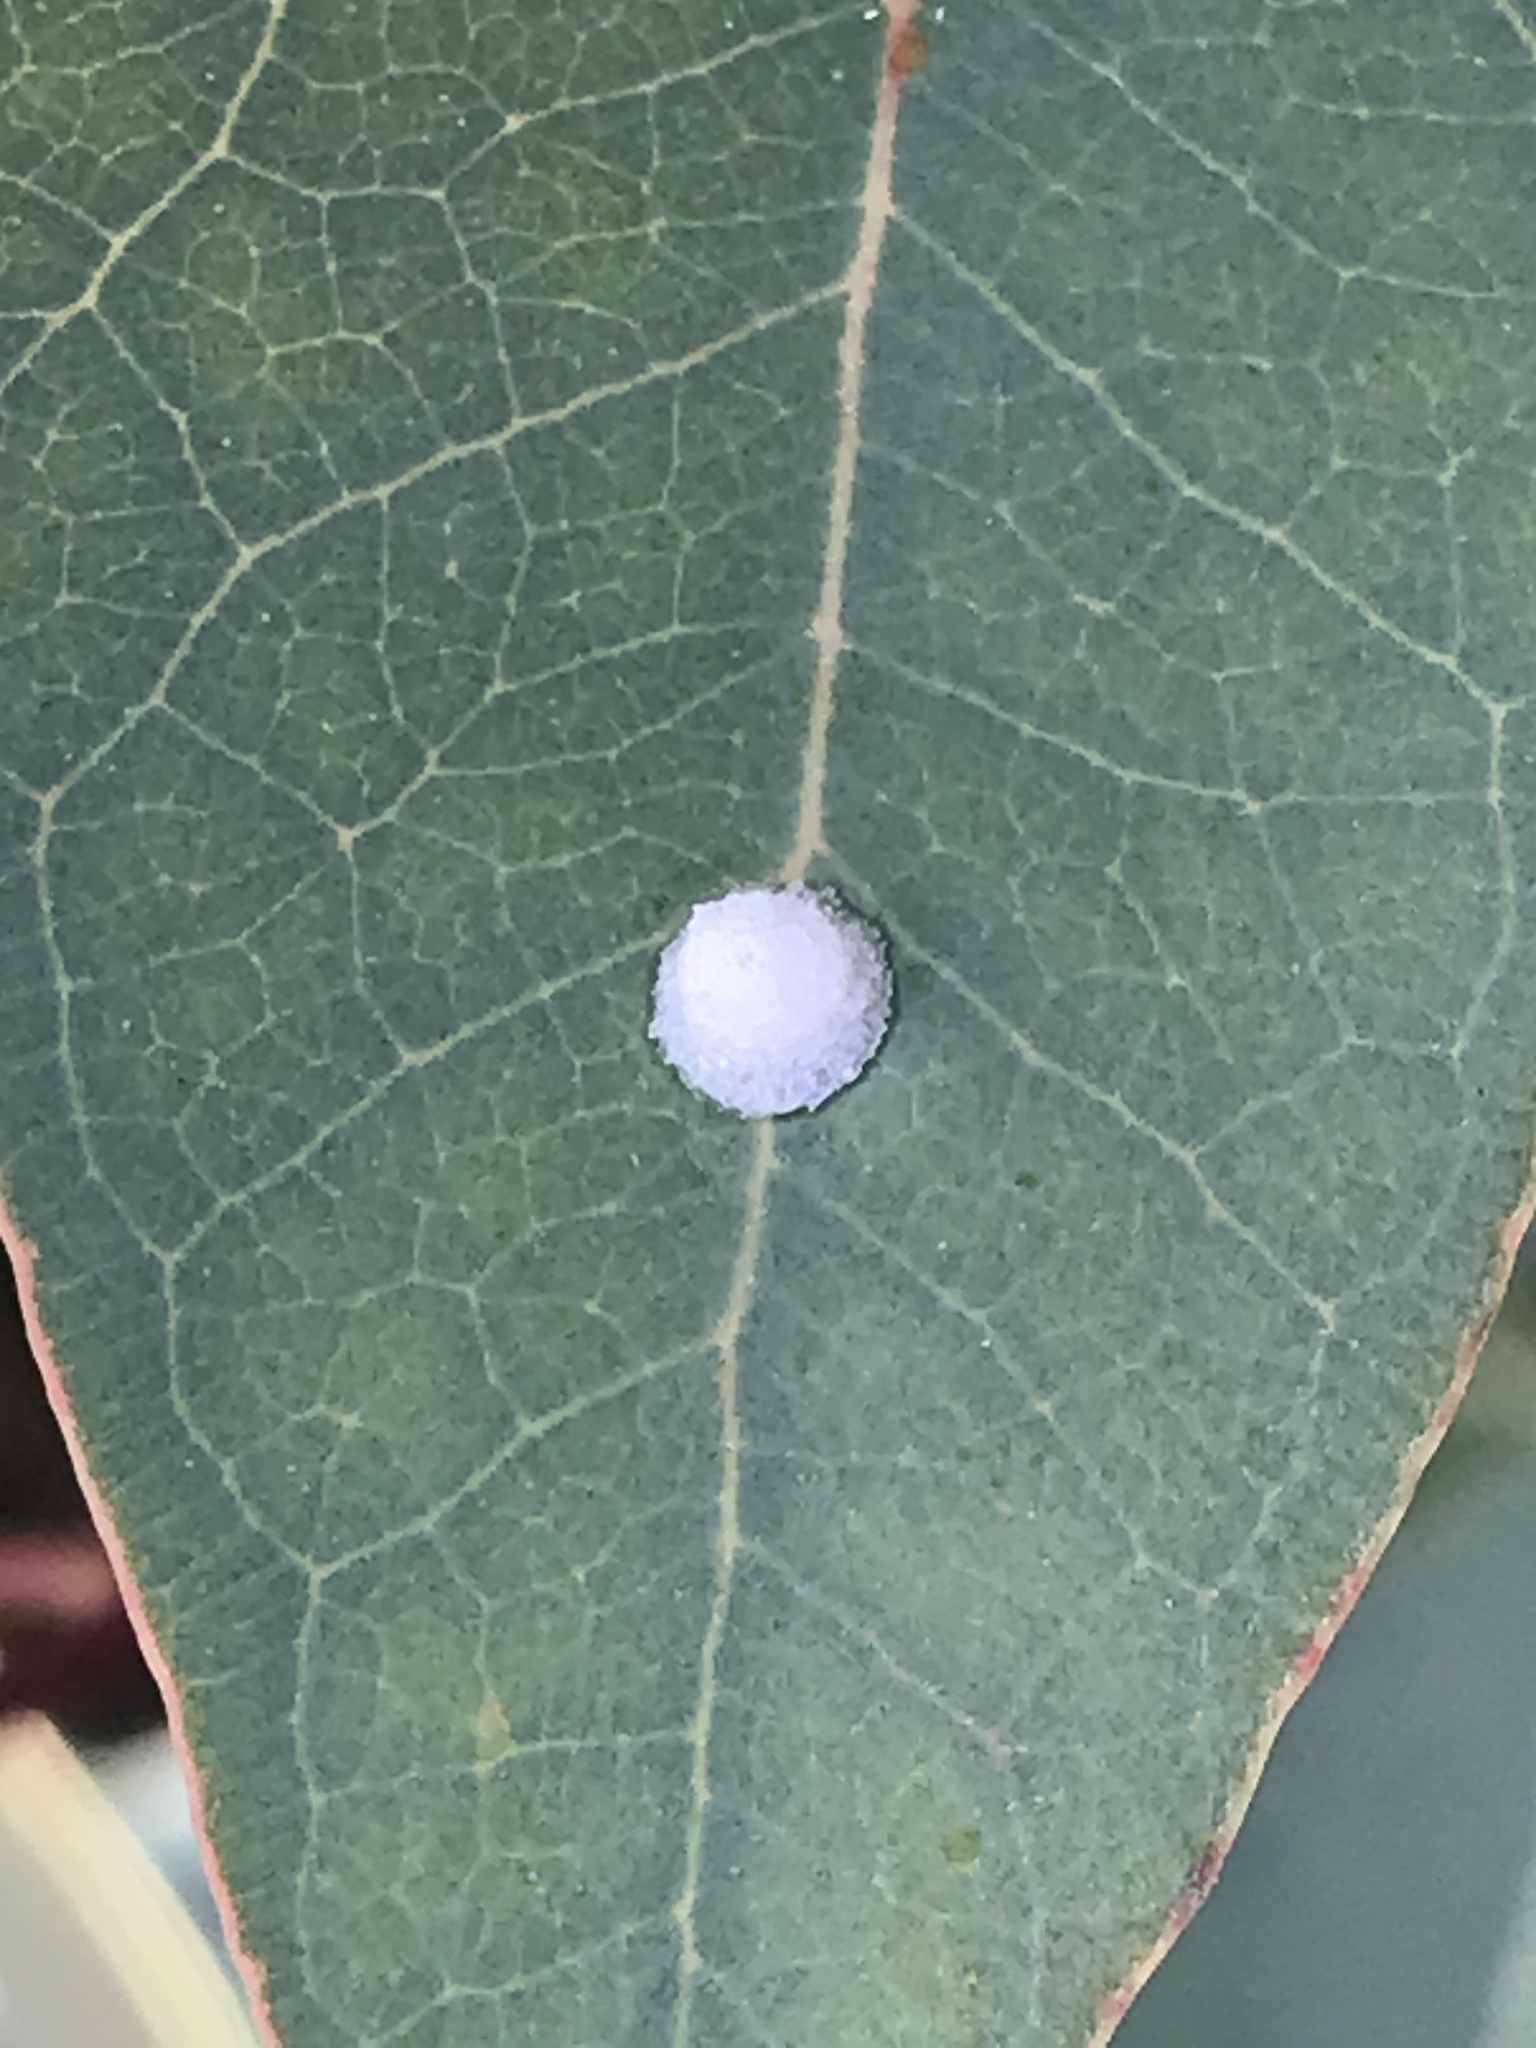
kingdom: Animalia
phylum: Arthropoda
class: Insecta
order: Hemiptera
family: Aphalaridae
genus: Glycaspis
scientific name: Glycaspis brimblecombei
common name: Red gum lerp psyllid
